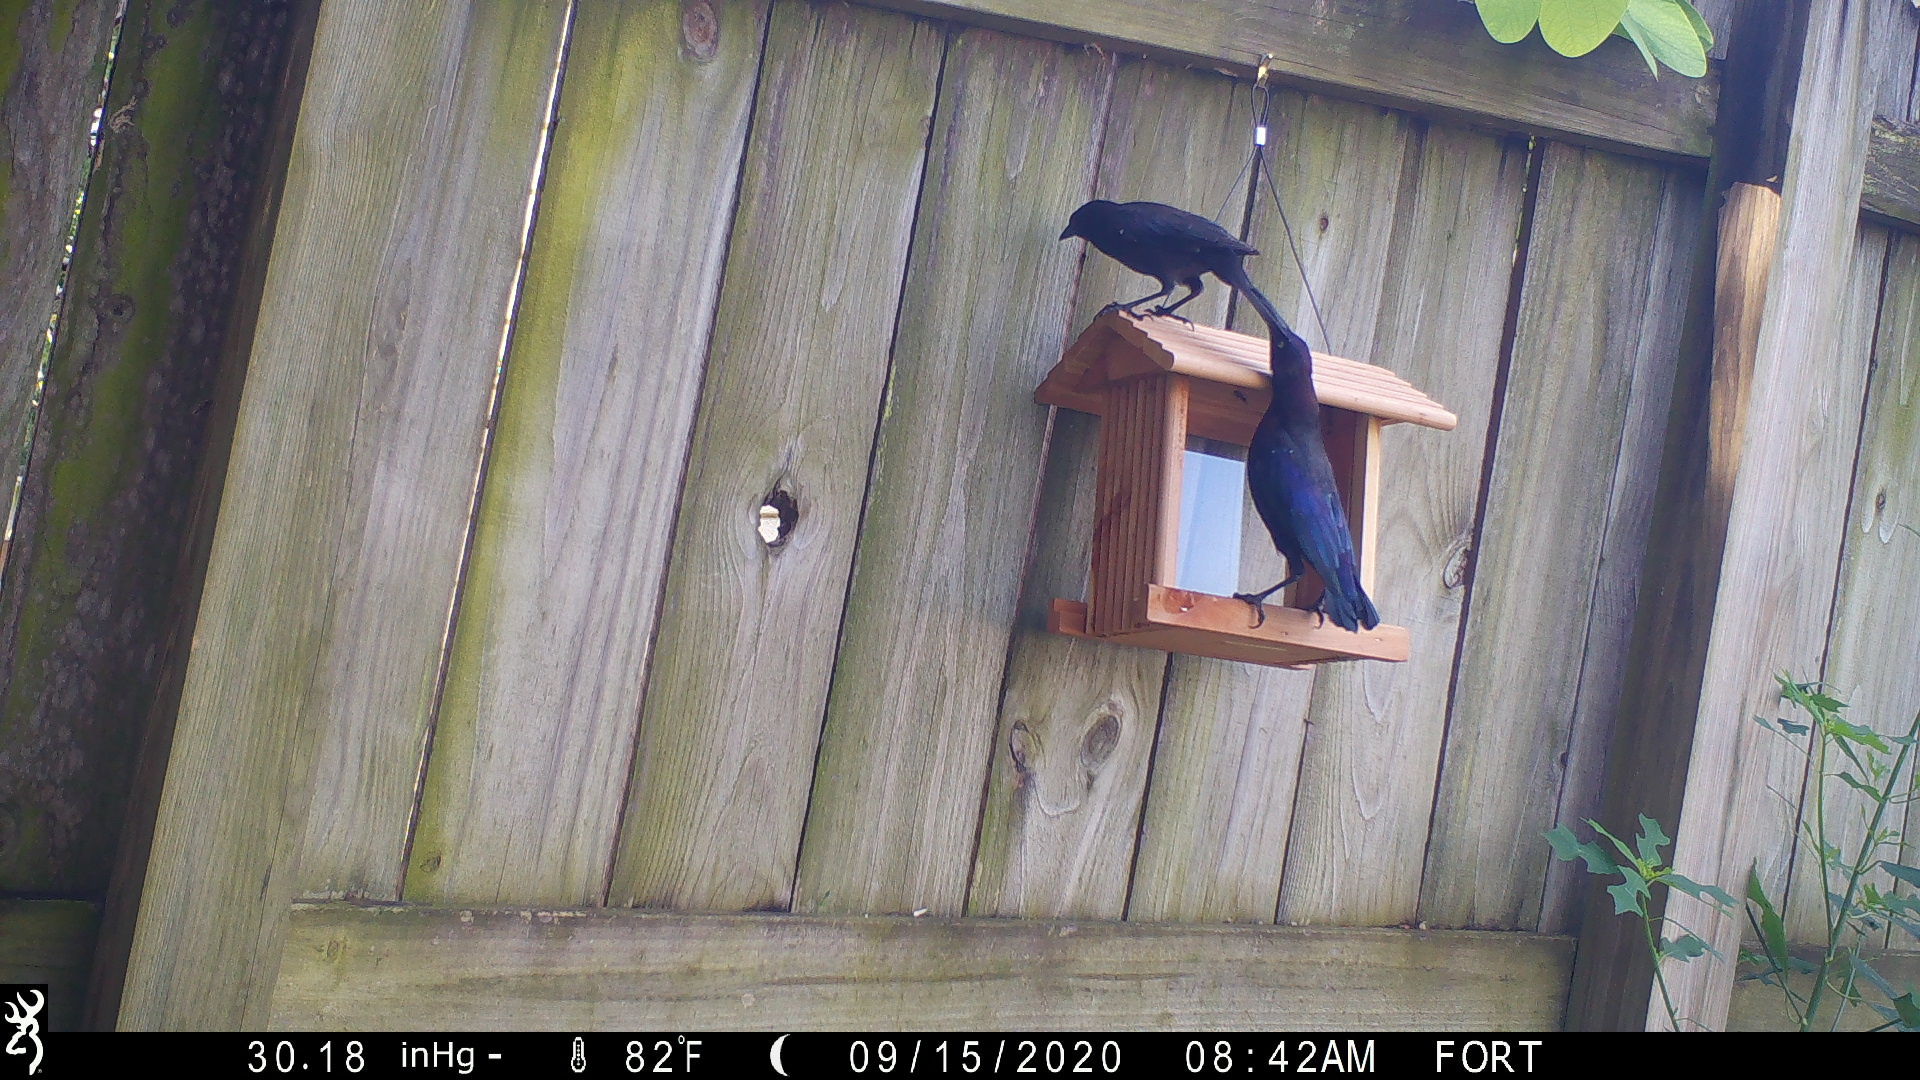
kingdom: Animalia
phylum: Chordata
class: Aves
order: Passeriformes
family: Icteridae
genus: Quiscalus
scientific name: Quiscalus quiscula
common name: Common grackle
